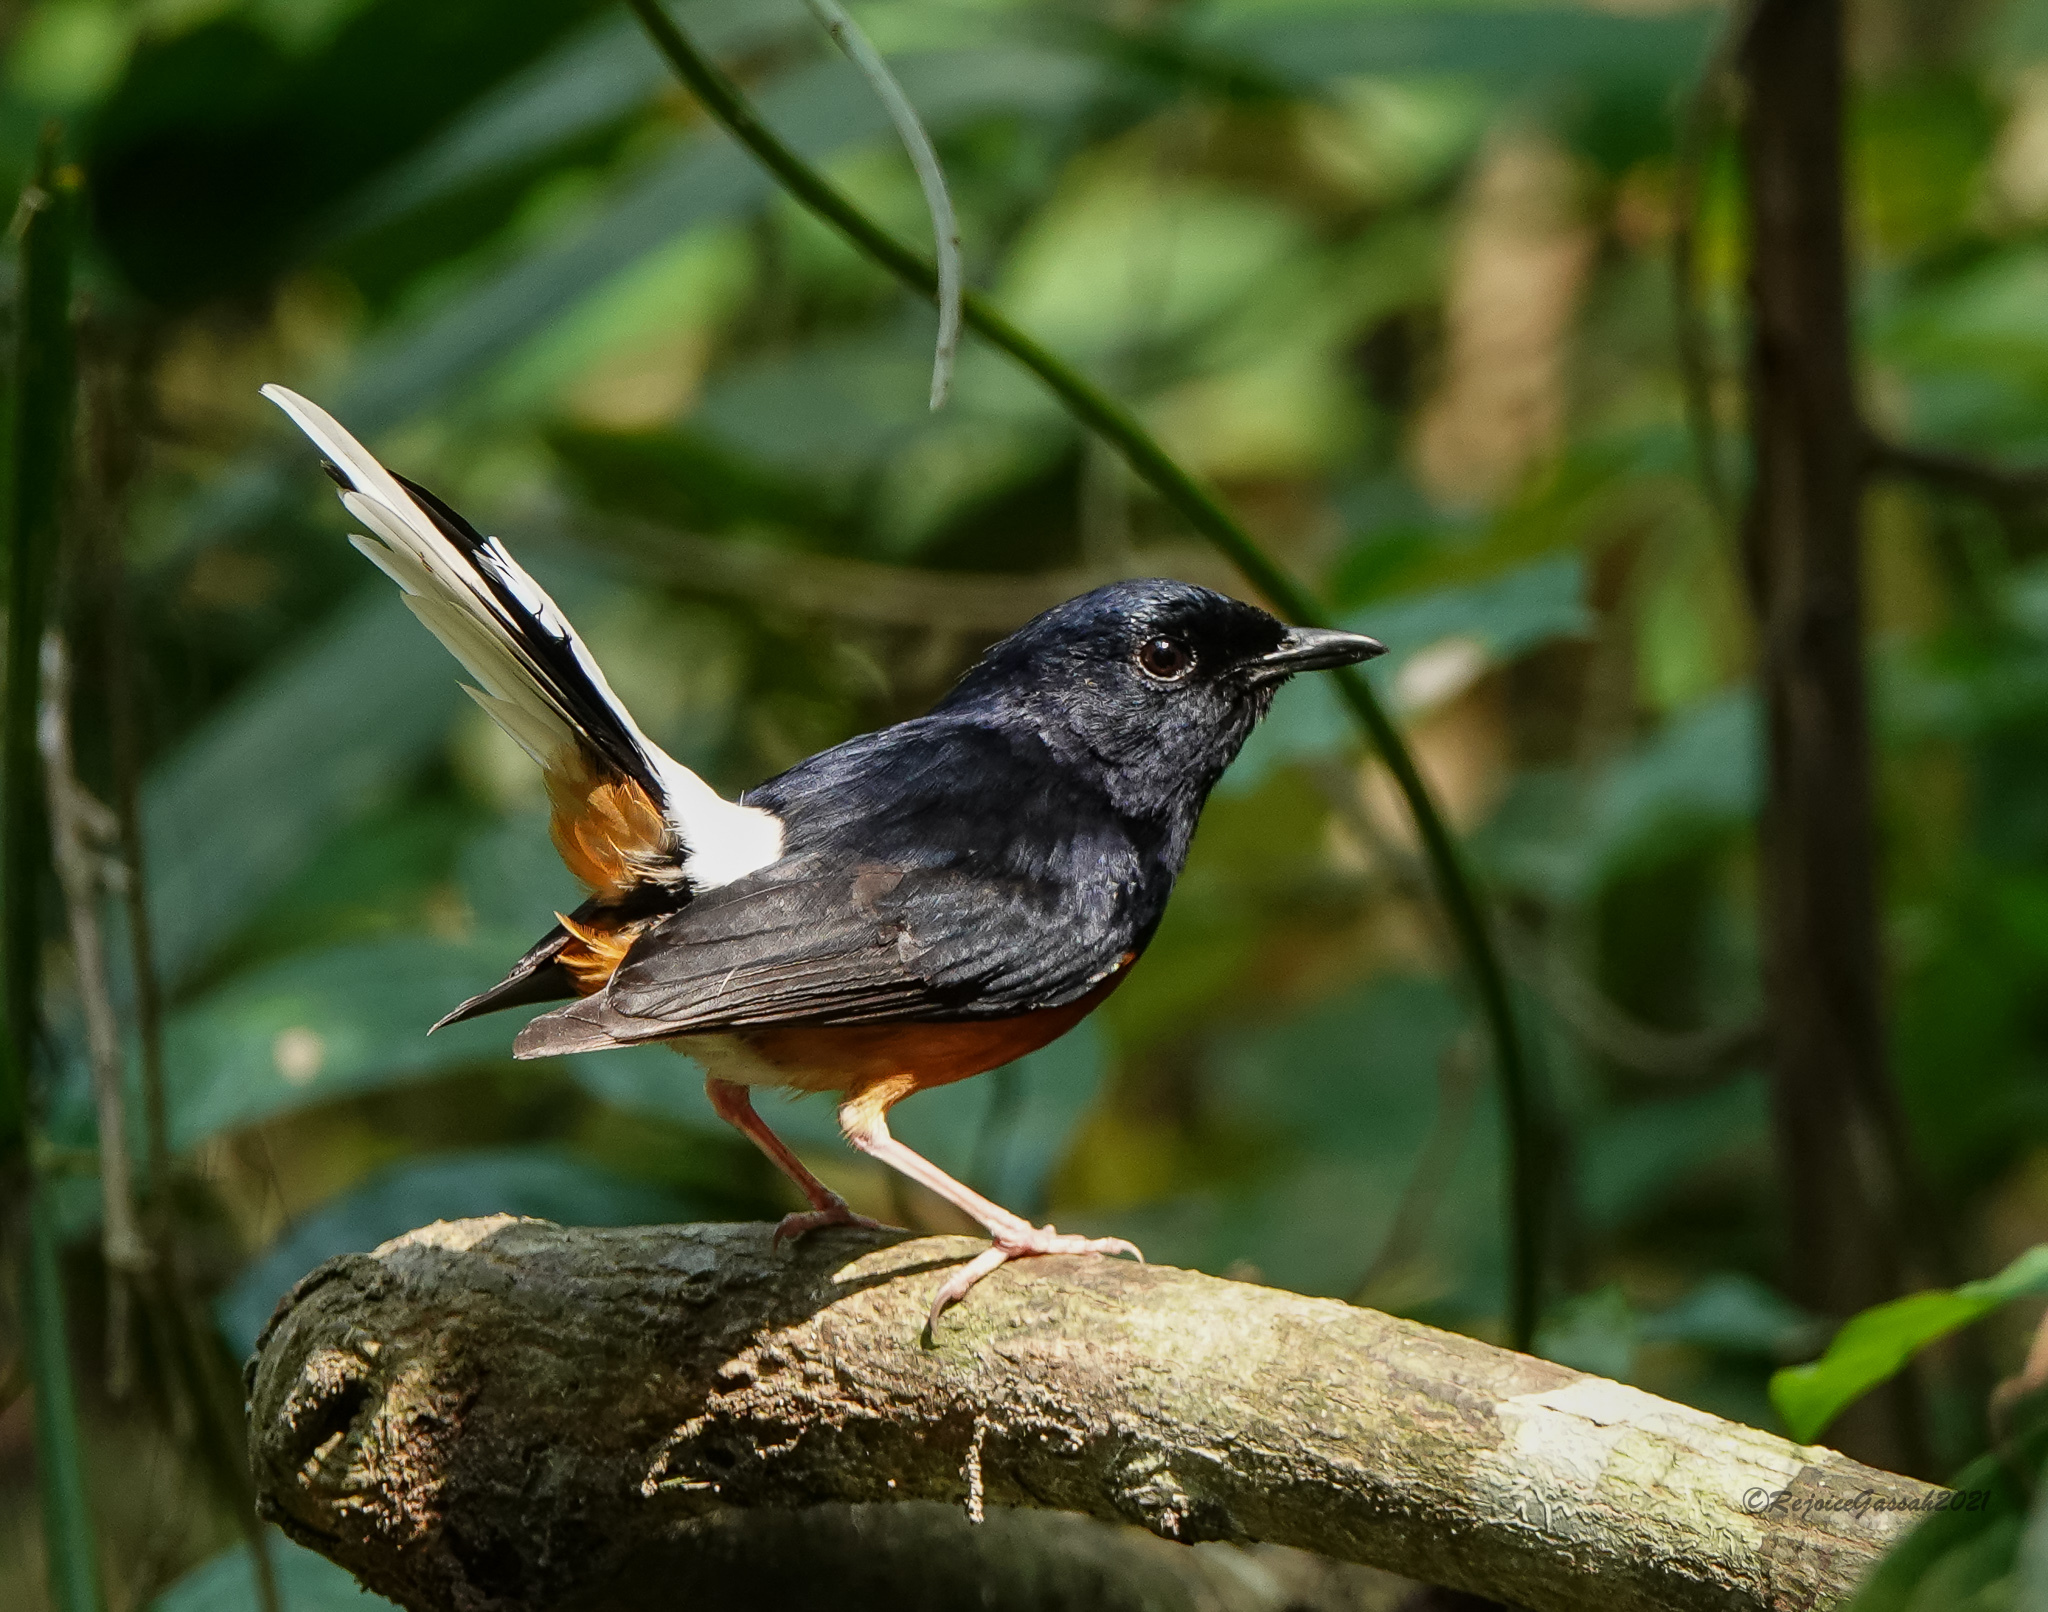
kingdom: Animalia
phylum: Chordata
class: Aves
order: Passeriformes
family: Muscicapidae
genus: Copsychus
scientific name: Copsychus malabaricus
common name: White-rumped shama
